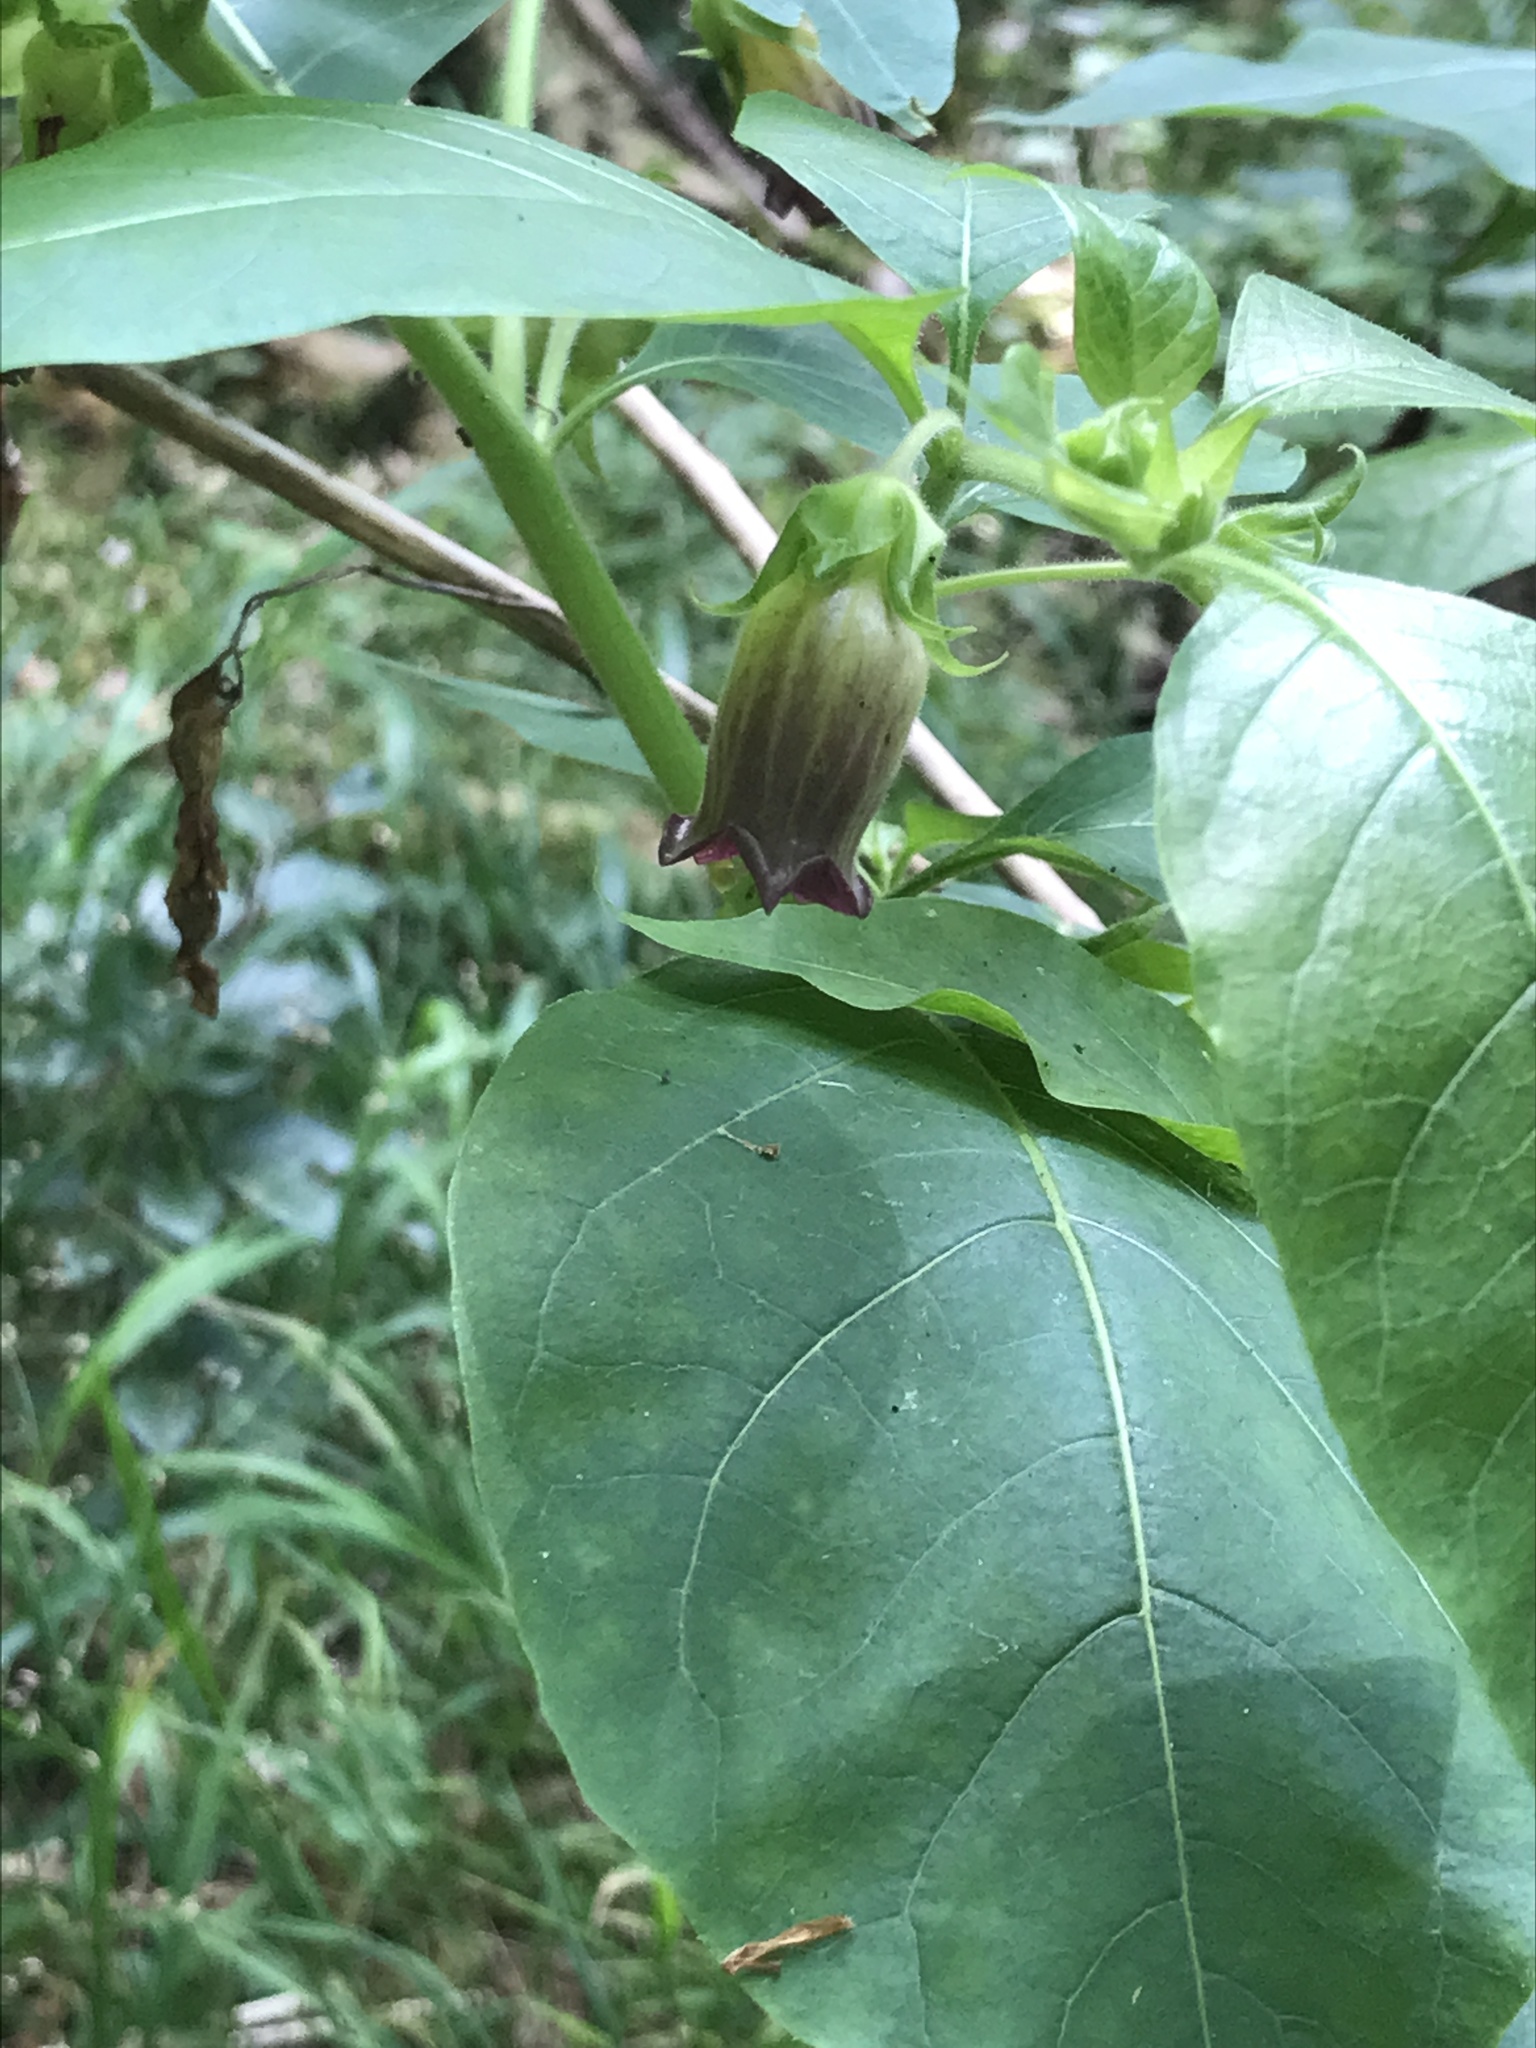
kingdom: Plantae
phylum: Tracheophyta
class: Magnoliopsida
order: Solanales
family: Solanaceae
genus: Atropa
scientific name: Atropa belladonna
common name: Deadly nightshade
